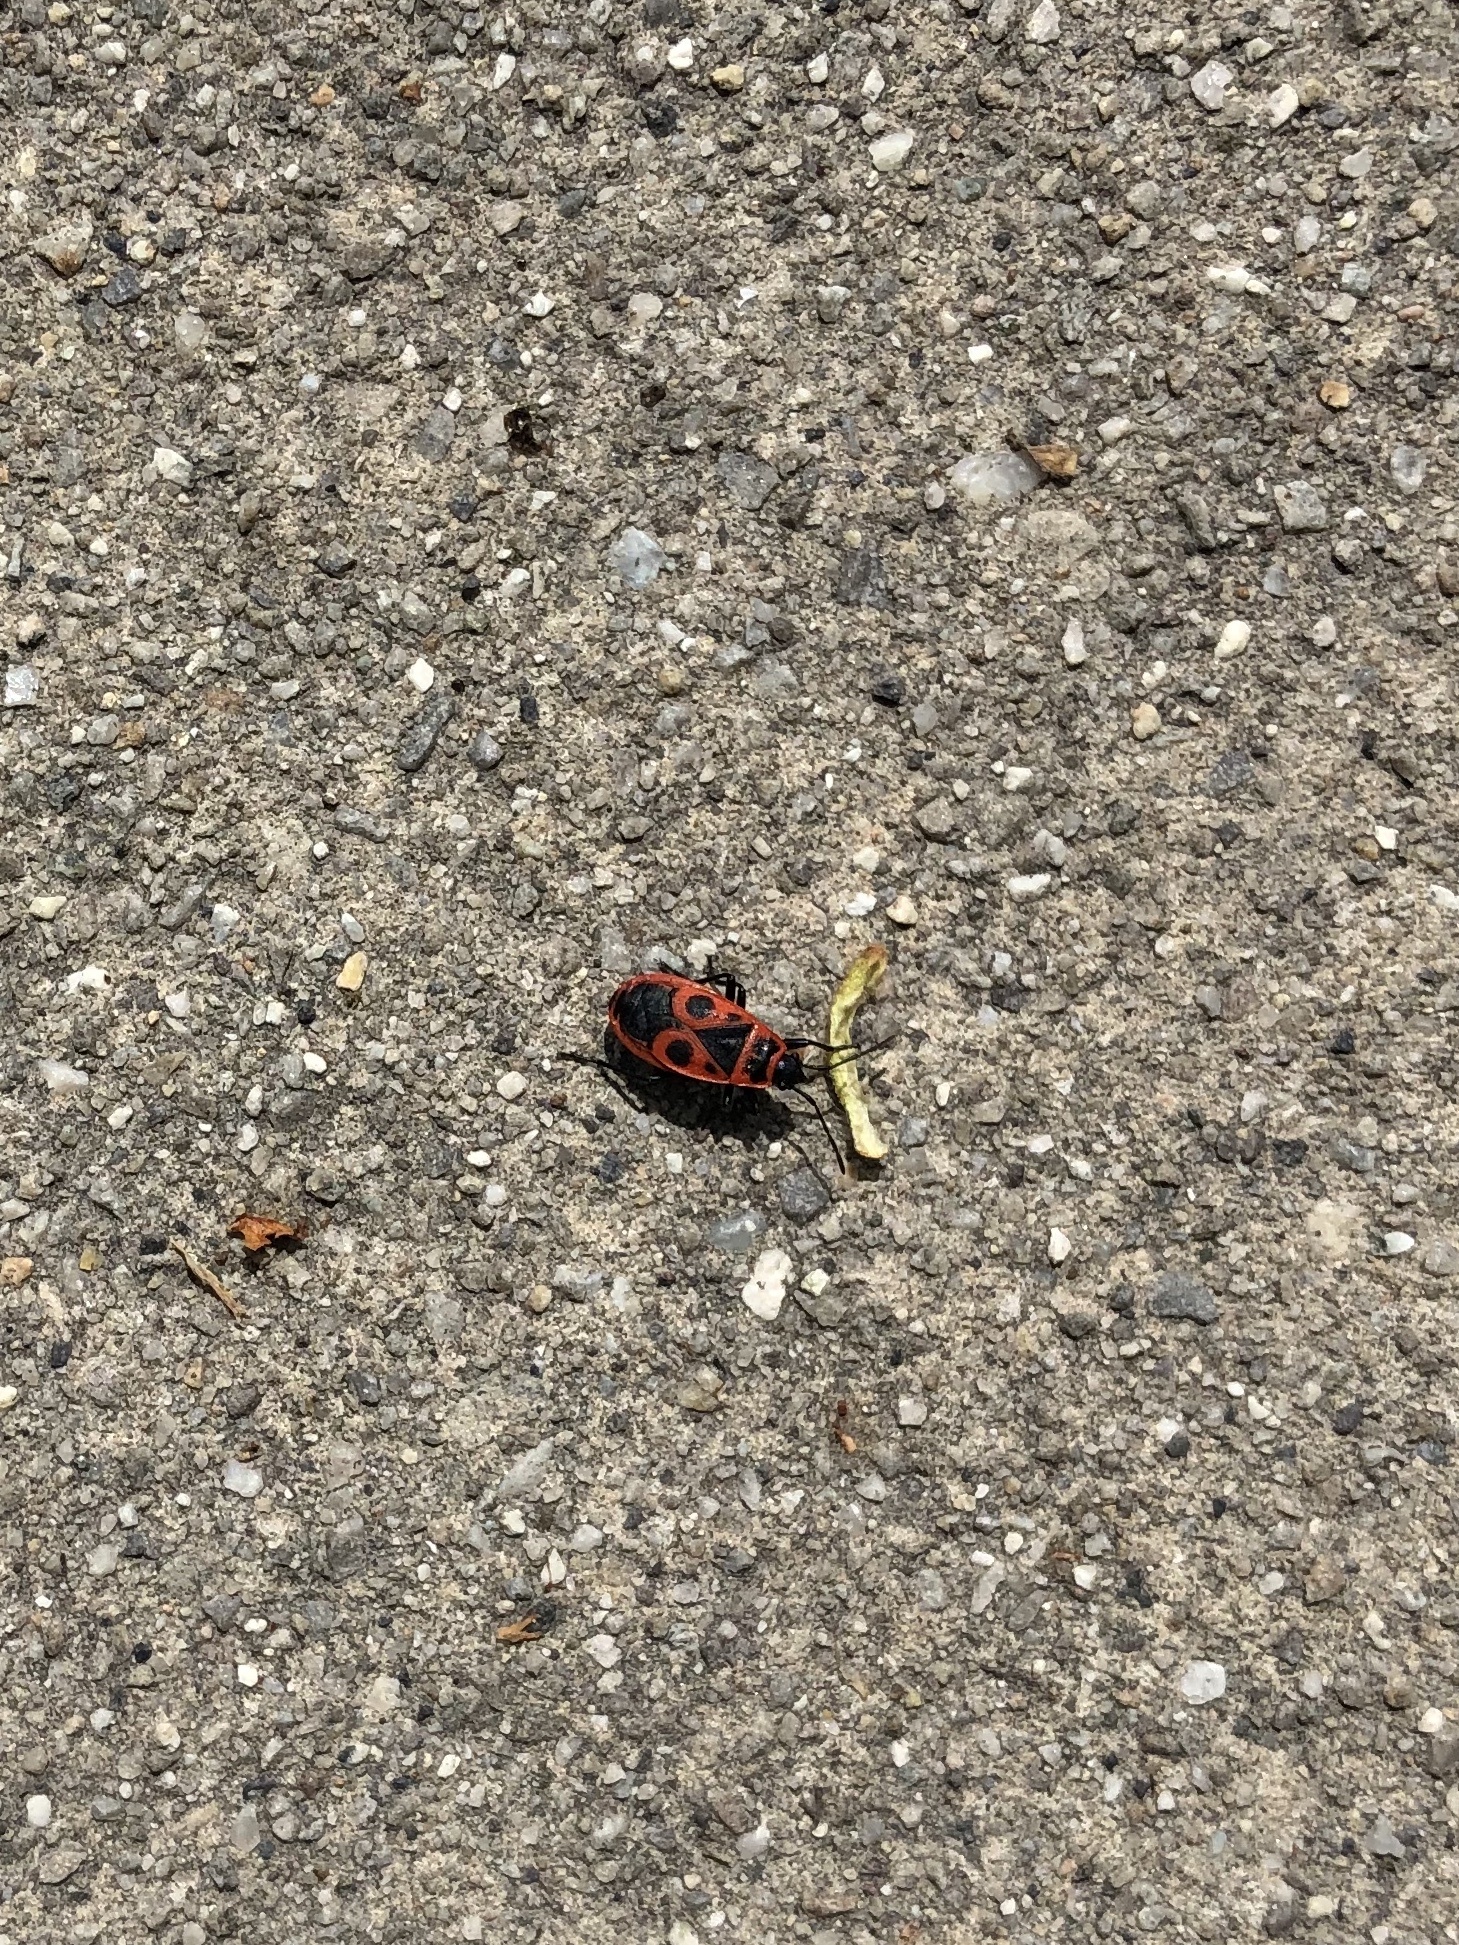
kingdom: Animalia
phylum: Arthropoda
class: Insecta
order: Hemiptera
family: Pyrrhocoridae
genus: Pyrrhocoris
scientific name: Pyrrhocoris apterus
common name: Firebug
